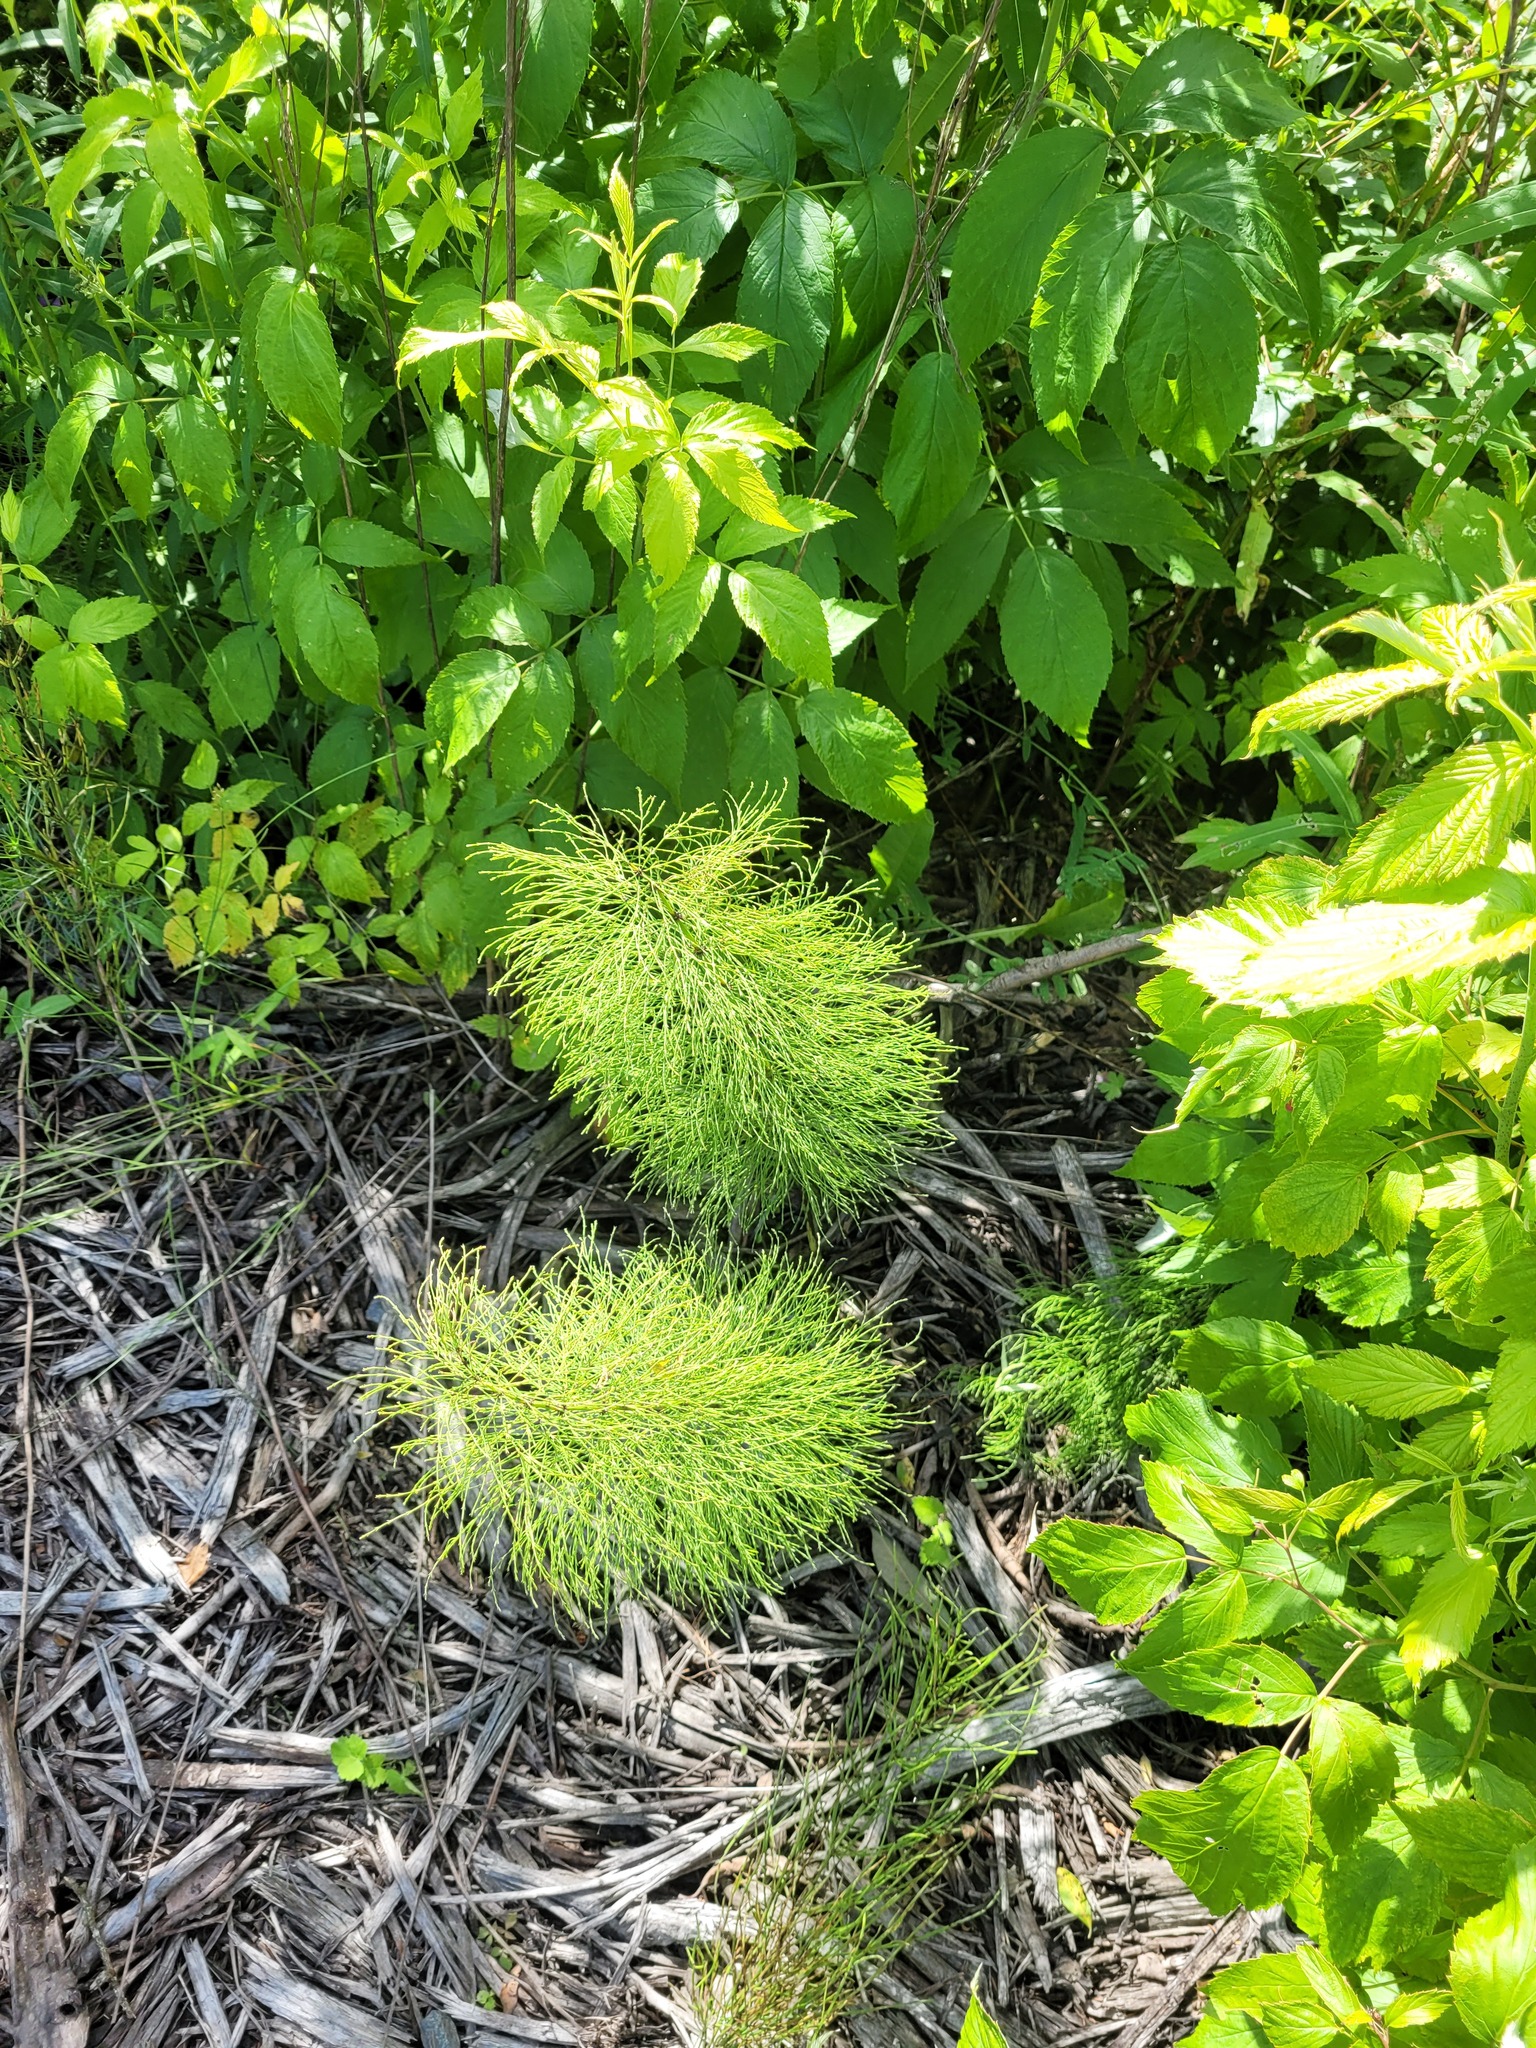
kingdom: Plantae
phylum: Tracheophyta
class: Polypodiopsida
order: Equisetales
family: Equisetaceae
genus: Equisetum
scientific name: Equisetum sylvaticum
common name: Wood horsetail
